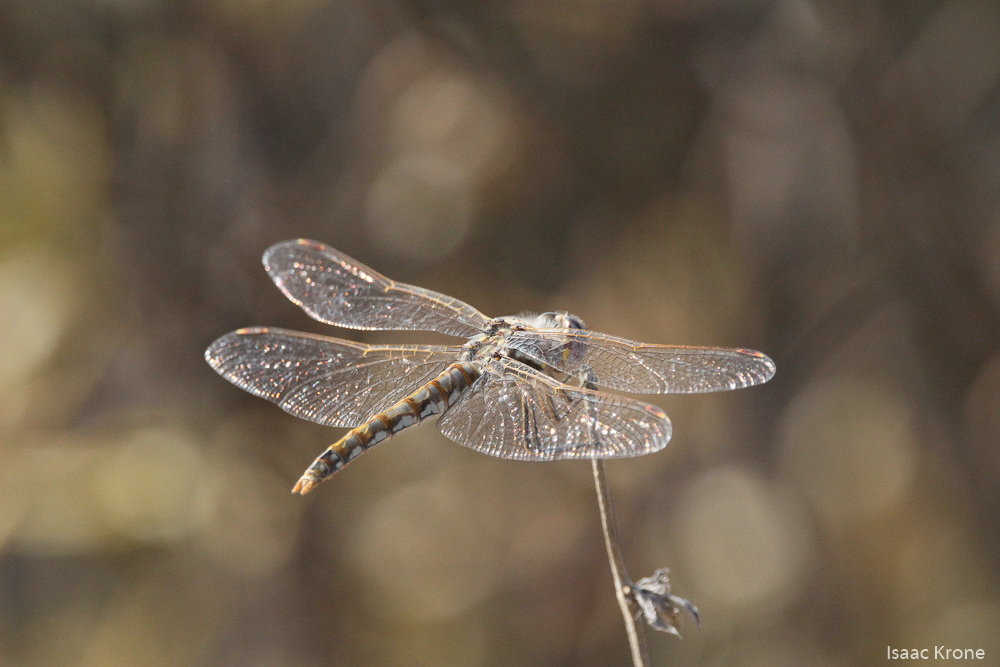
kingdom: Animalia
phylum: Arthropoda
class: Insecta
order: Odonata
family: Libellulidae
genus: Sympetrum
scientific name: Sympetrum corruptum
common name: Variegated meadowhawk
